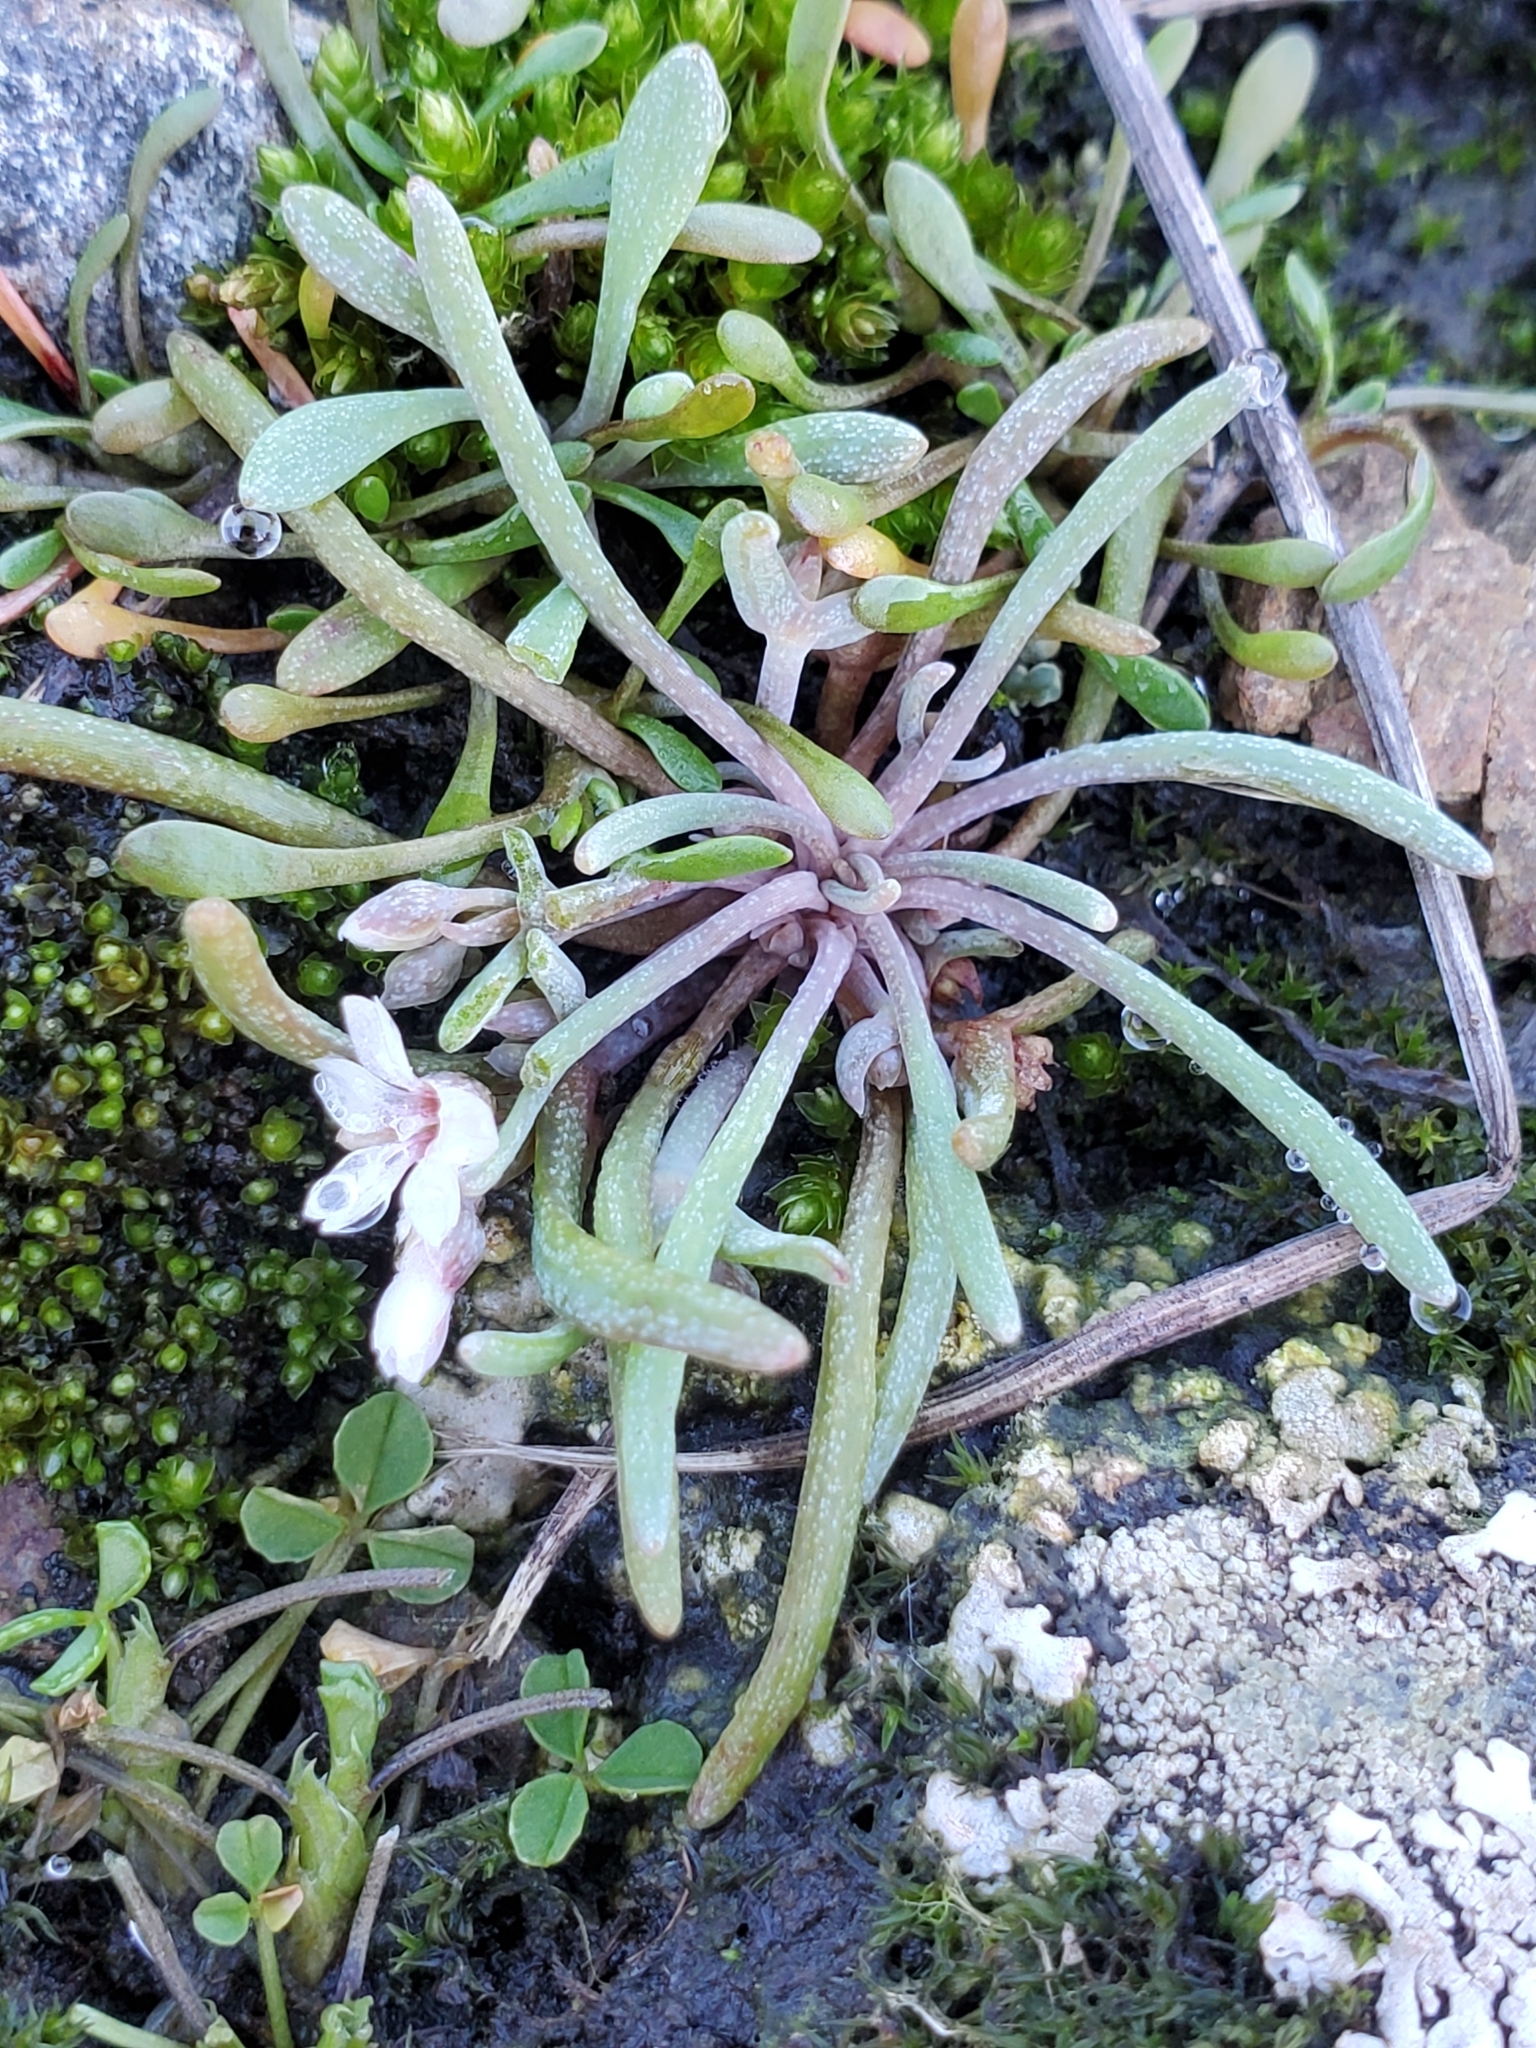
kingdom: Plantae
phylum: Tracheophyta
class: Magnoliopsida
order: Caryophyllales
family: Montiaceae
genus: Claytonia
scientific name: Claytonia exigua
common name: Pale spring beauty
